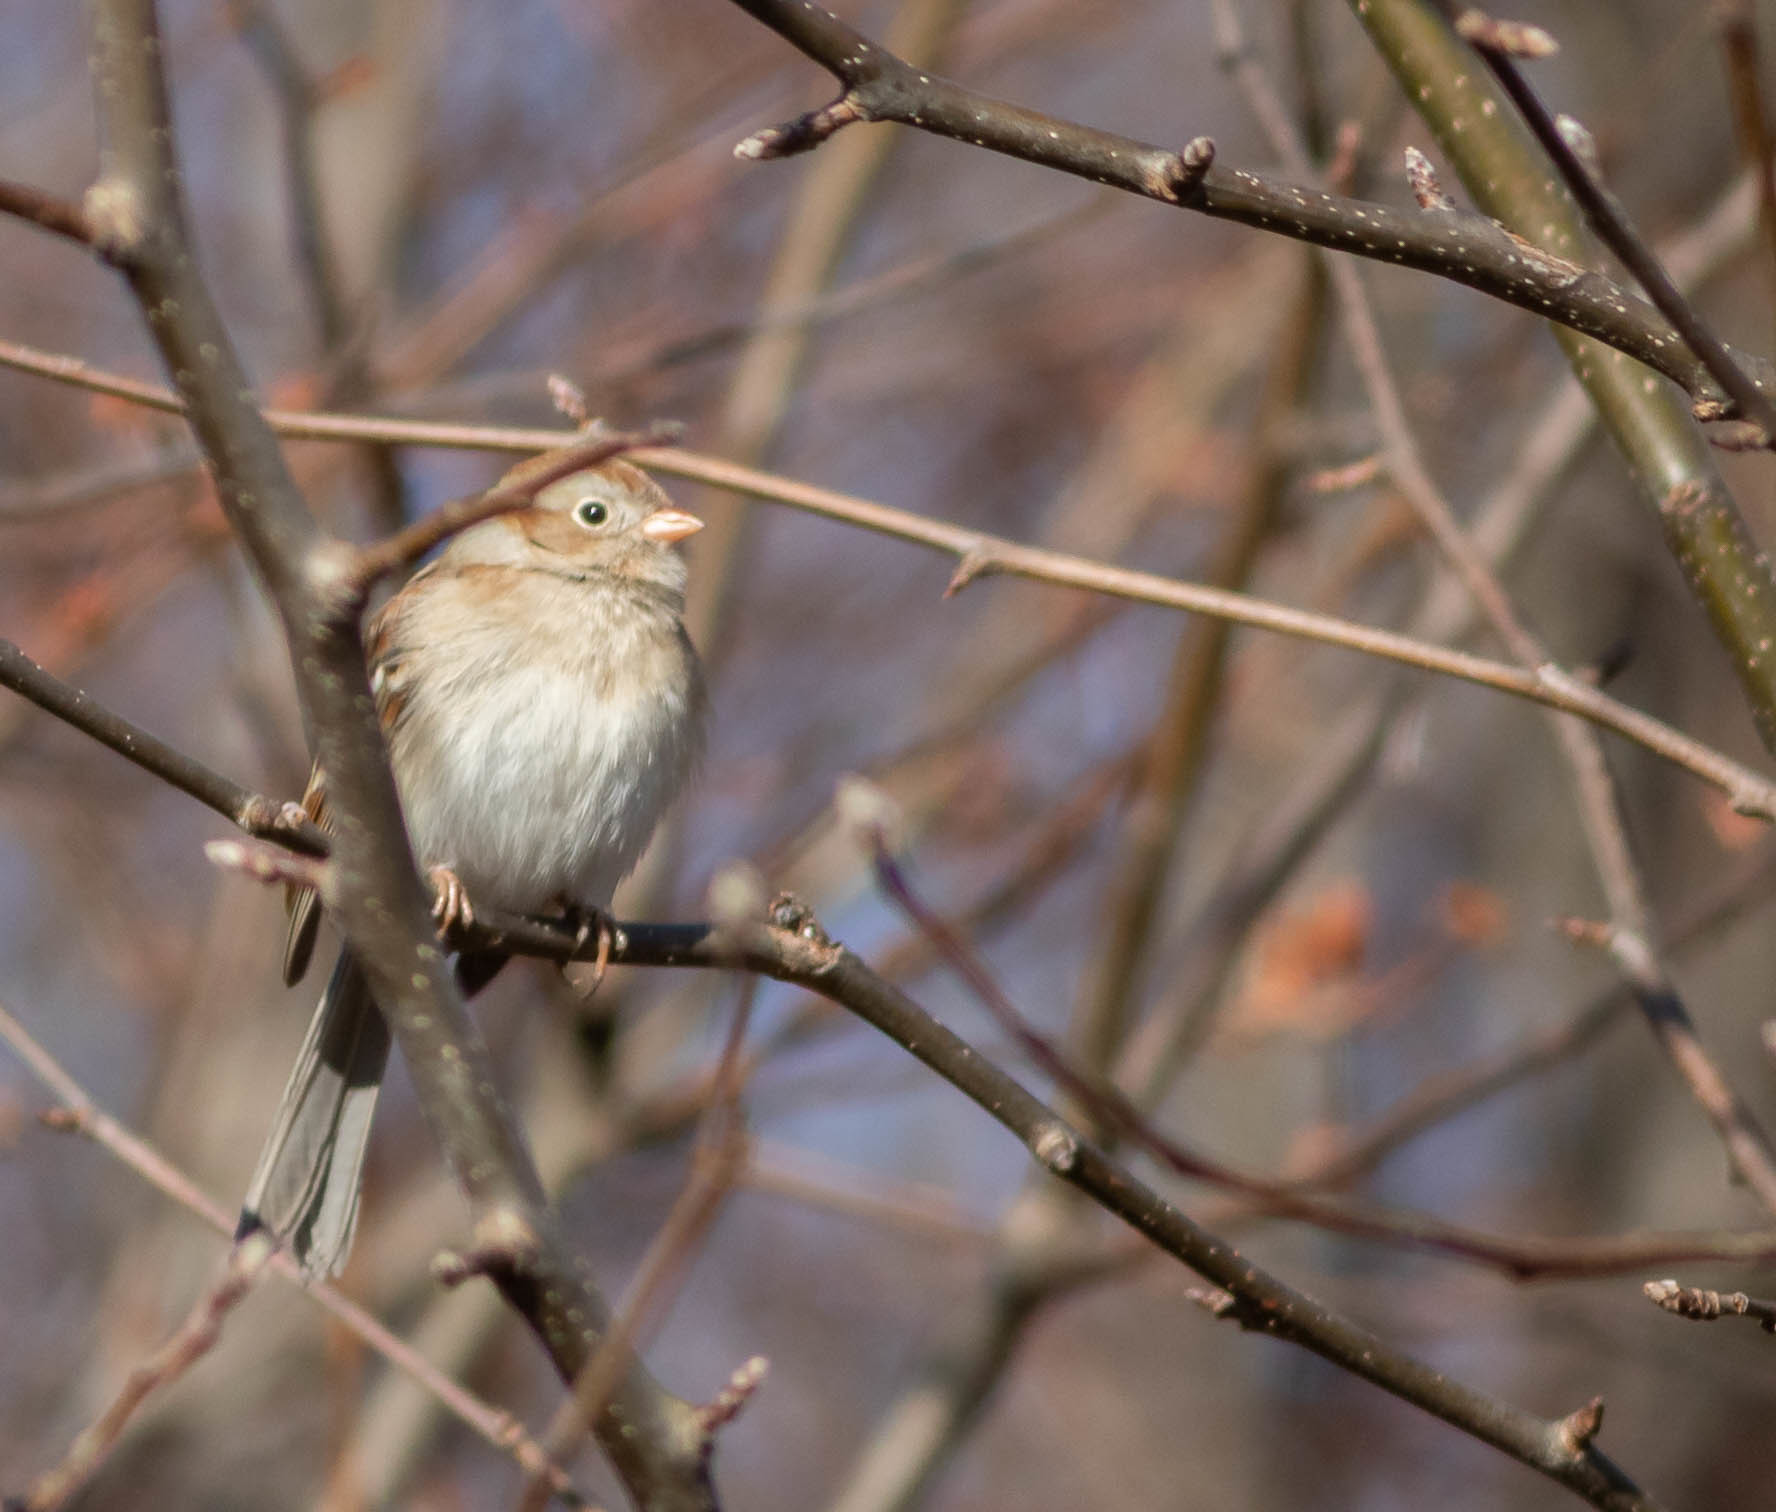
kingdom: Animalia
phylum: Chordata
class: Aves
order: Passeriformes
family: Passerellidae
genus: Spizella
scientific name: Spizella pusilla
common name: Field sparrow
